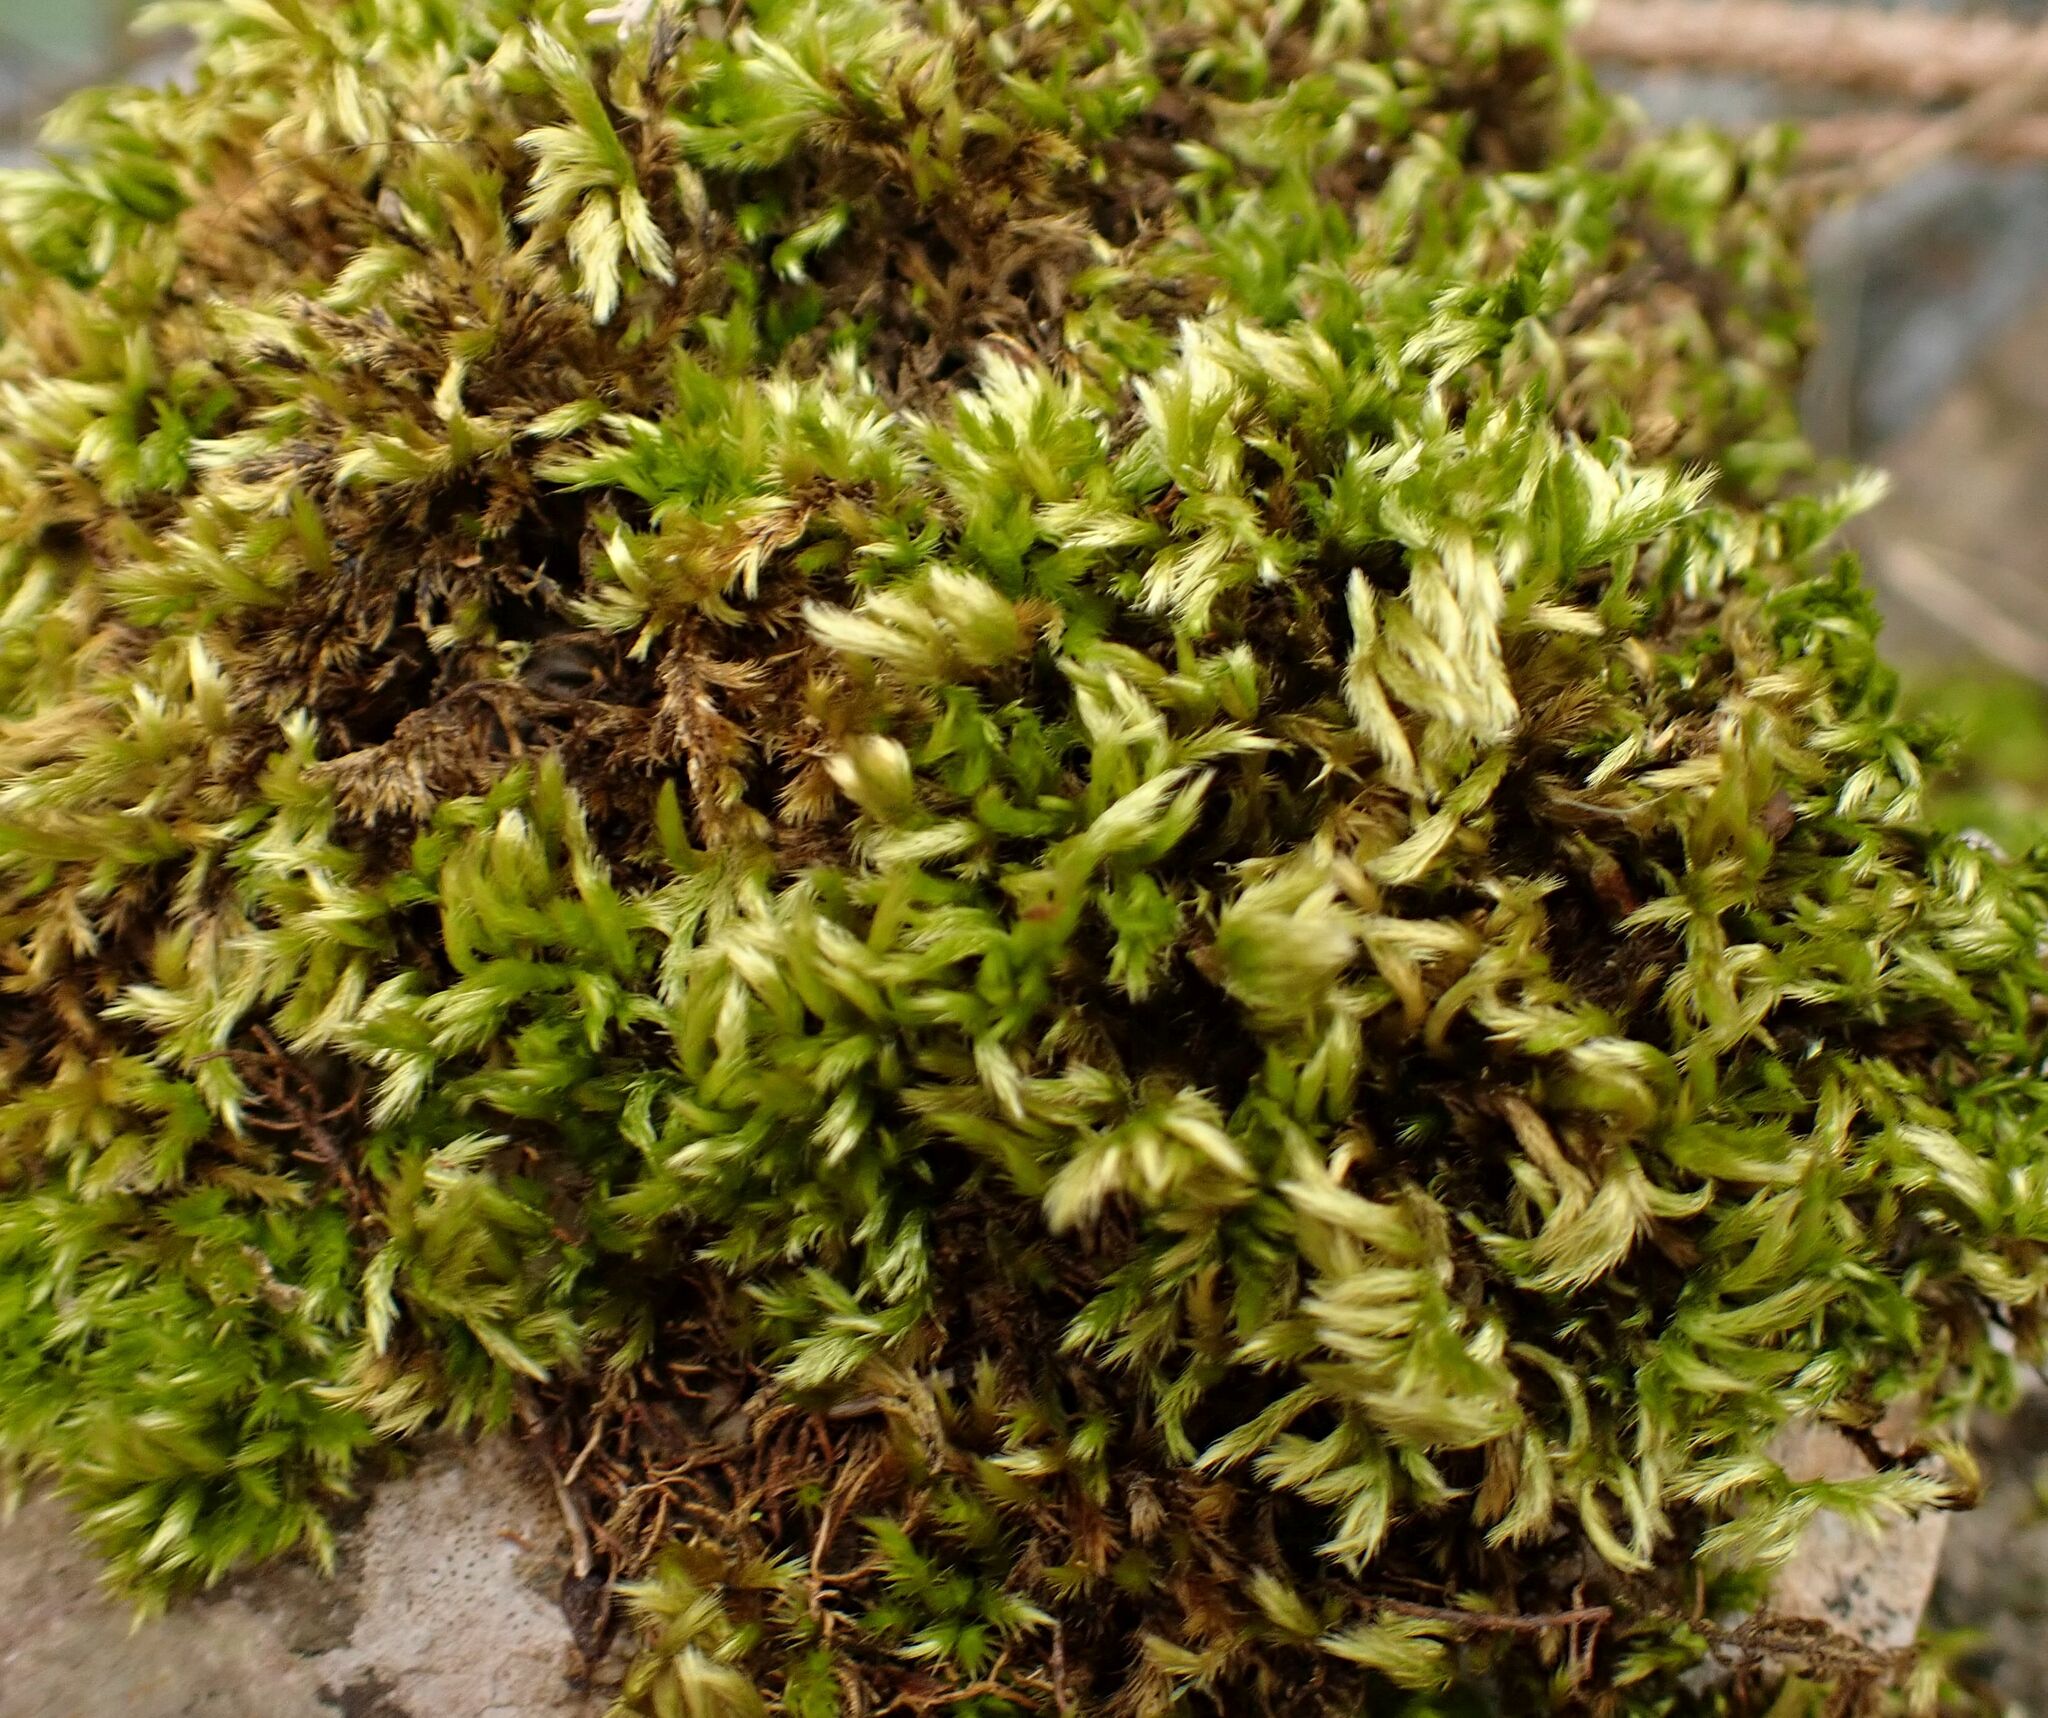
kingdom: Plantae
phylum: Bryophyta
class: Bryopsida
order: Hypnales
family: Brachytheciaceae
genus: Homalothecium
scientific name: Homalothecium sericeum
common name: Silky wall feather-moss
